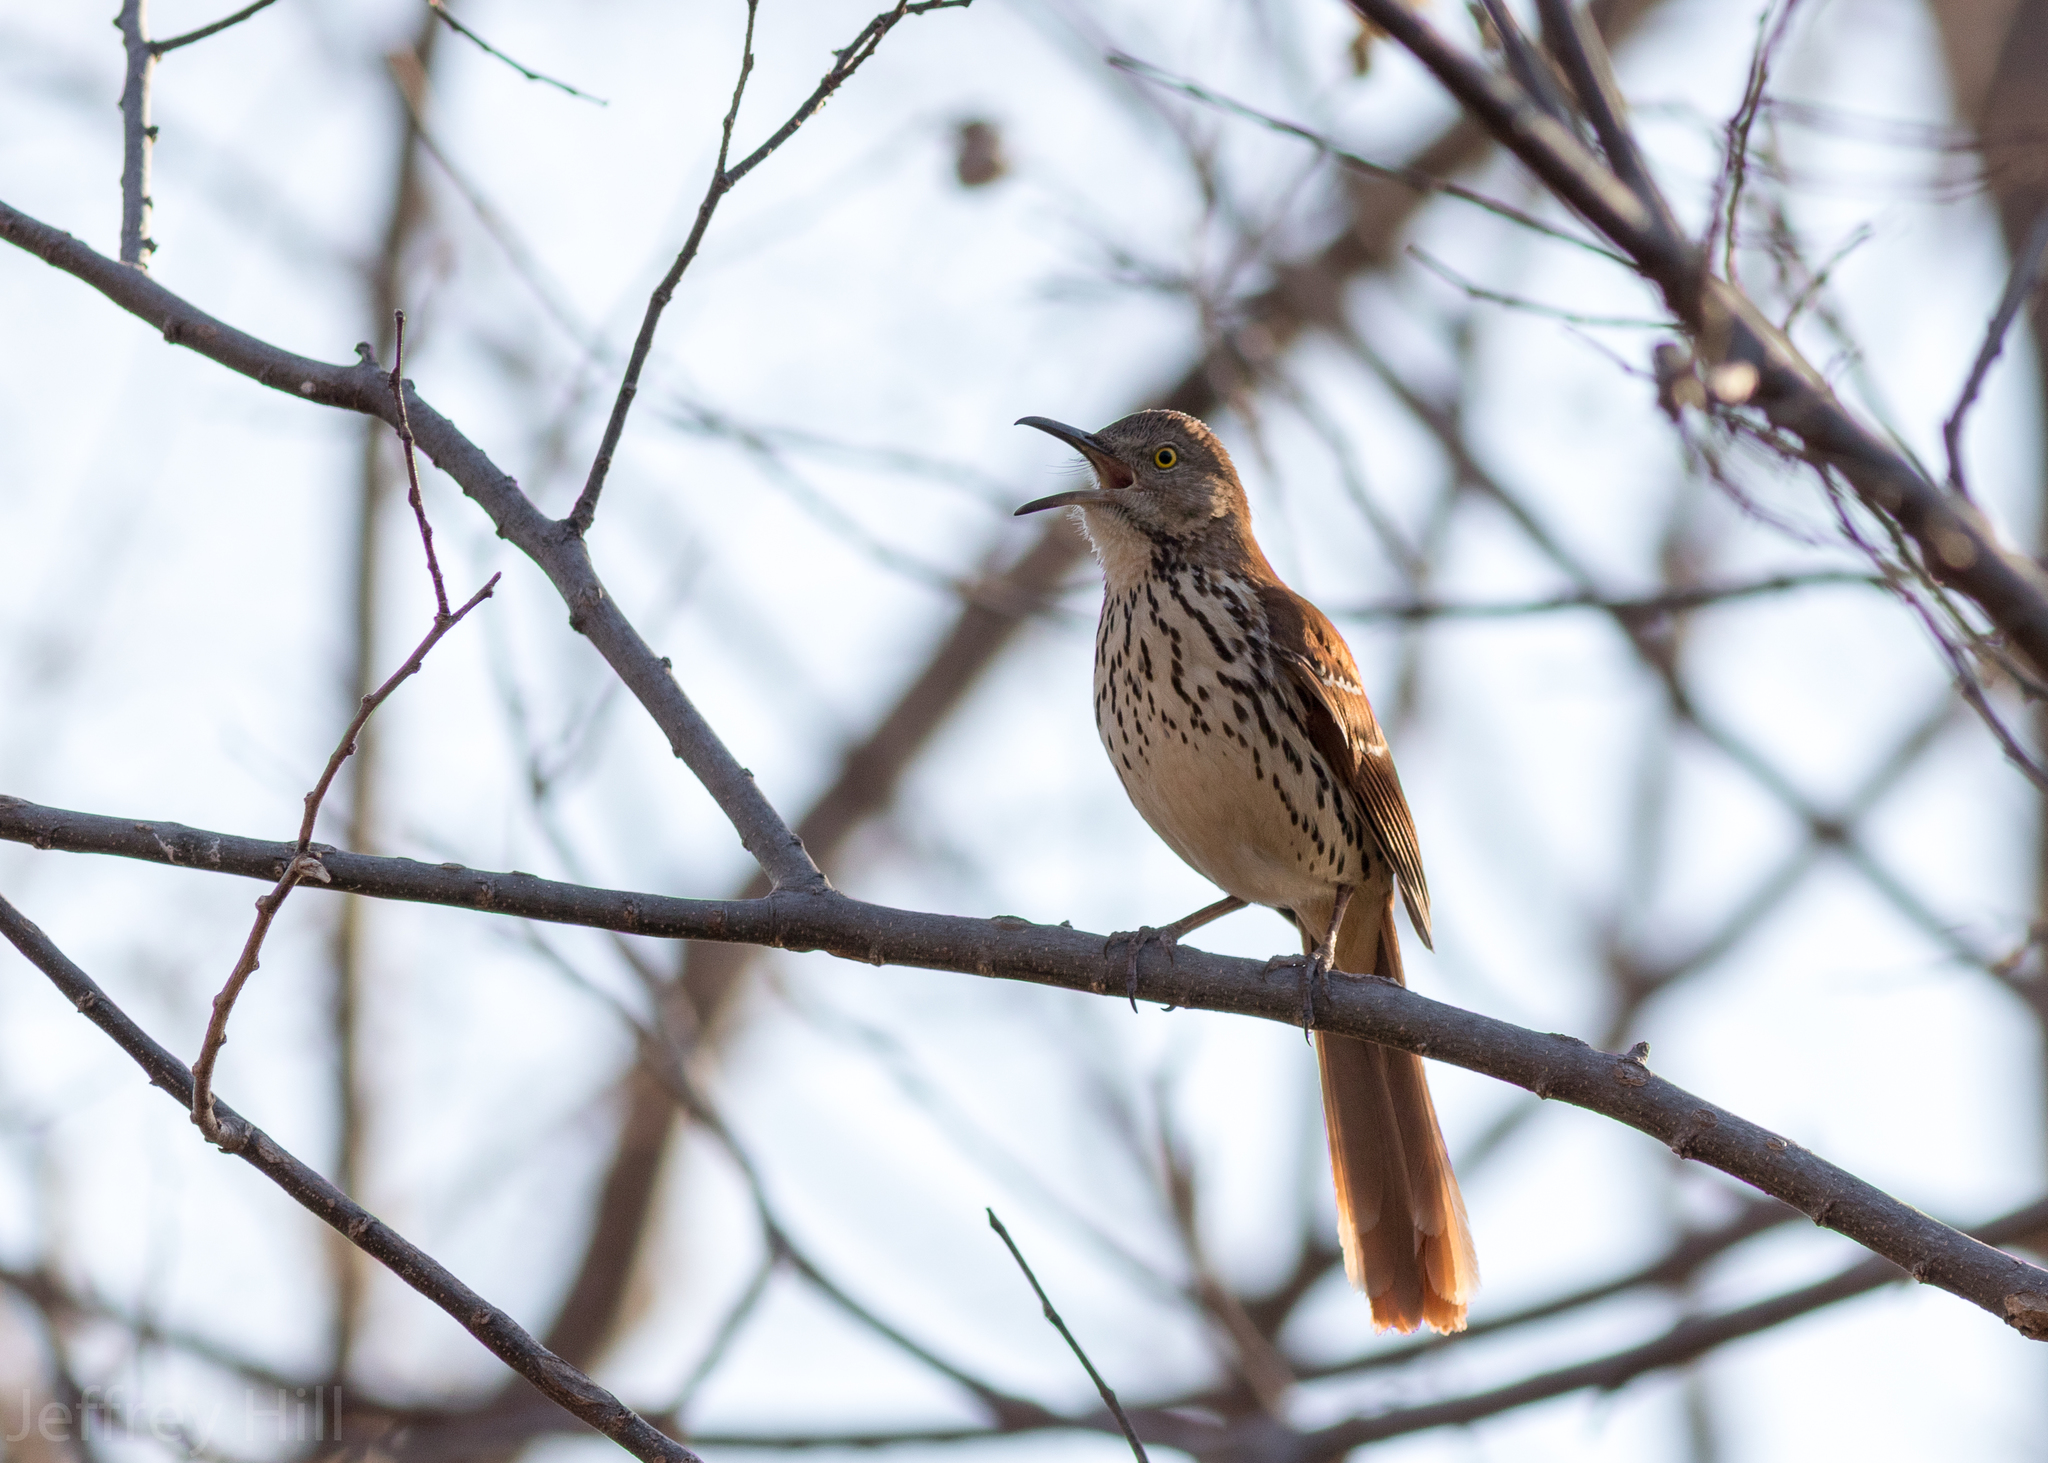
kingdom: Animalia
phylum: Chordata
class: Aves
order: Passeriformes
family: Mimidae
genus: Toxostoma
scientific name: Toxostoma rufum
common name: Brown thrasher
